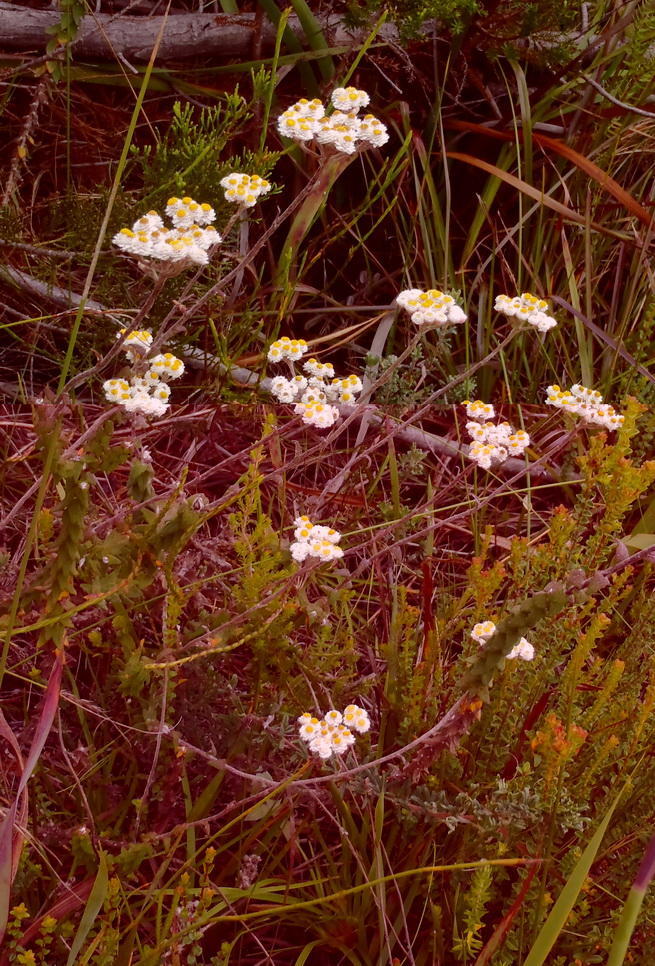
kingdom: Plantae
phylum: Tracheophyta
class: Magnoliopsida
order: Asterales
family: Asteraceae
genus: Helichrysum
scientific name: Helichrysum felinum
